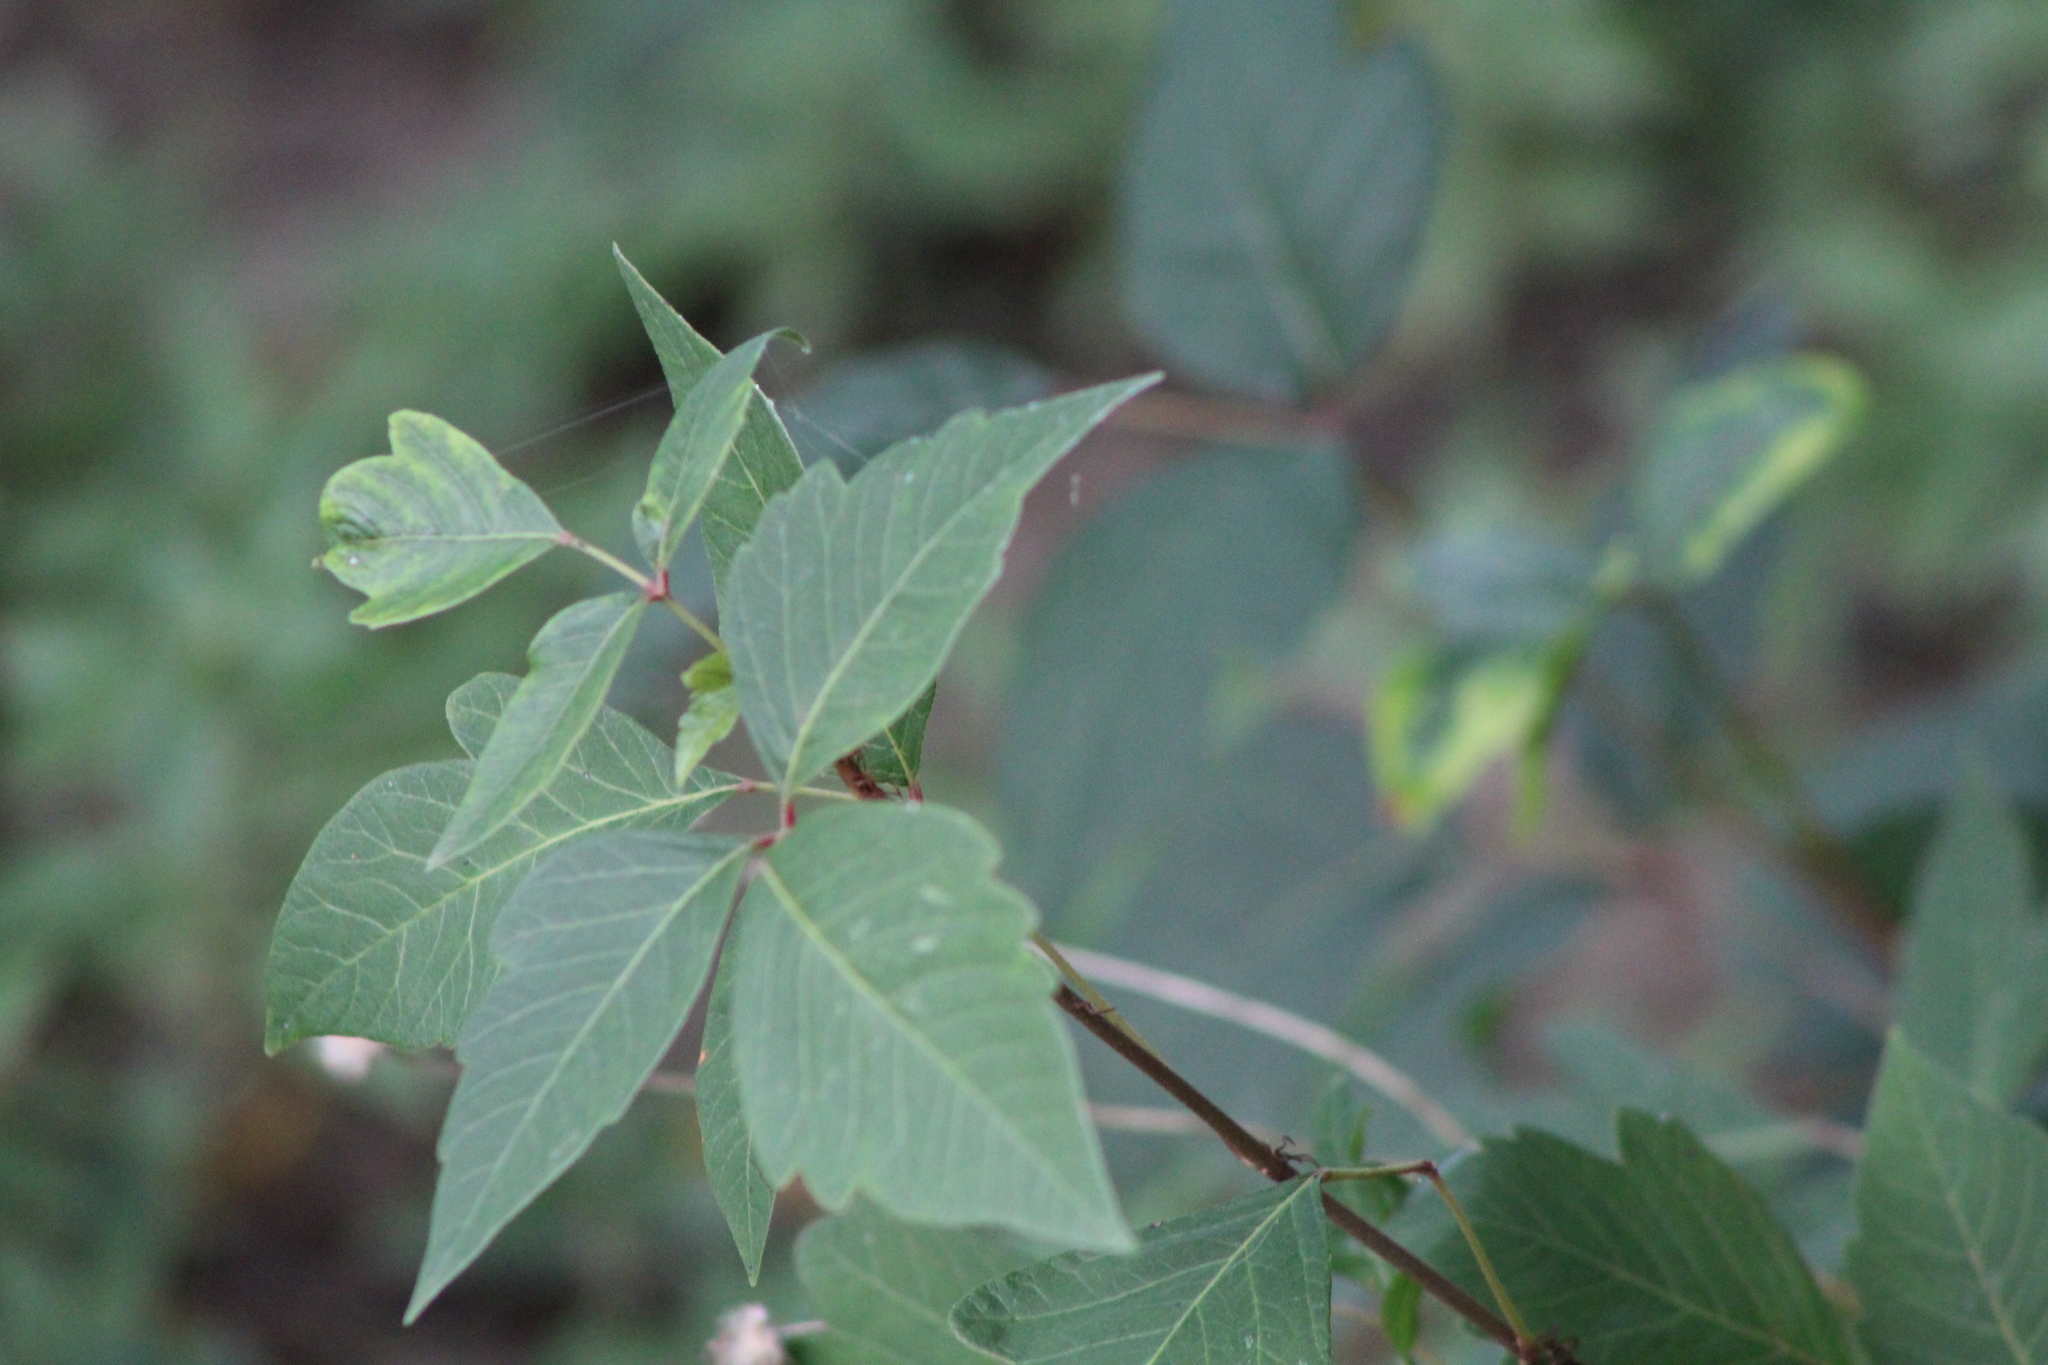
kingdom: Plantae
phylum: Tracheophyta
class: Magnoliopsida
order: Sapindales
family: Anacardiaceae
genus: Toxicodendron
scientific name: Toxicodendron radicans
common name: Poison ivy
